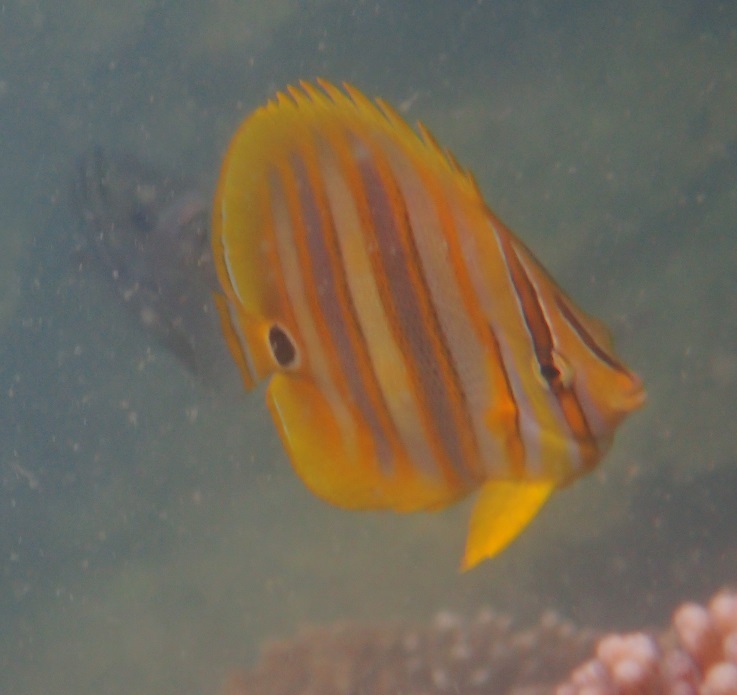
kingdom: Animalia
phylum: Chordata
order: Perciformes
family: Chaetodontidae
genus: Chaetodon
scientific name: Chaetodon rainfordi
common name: Rainford's butterflyfish
